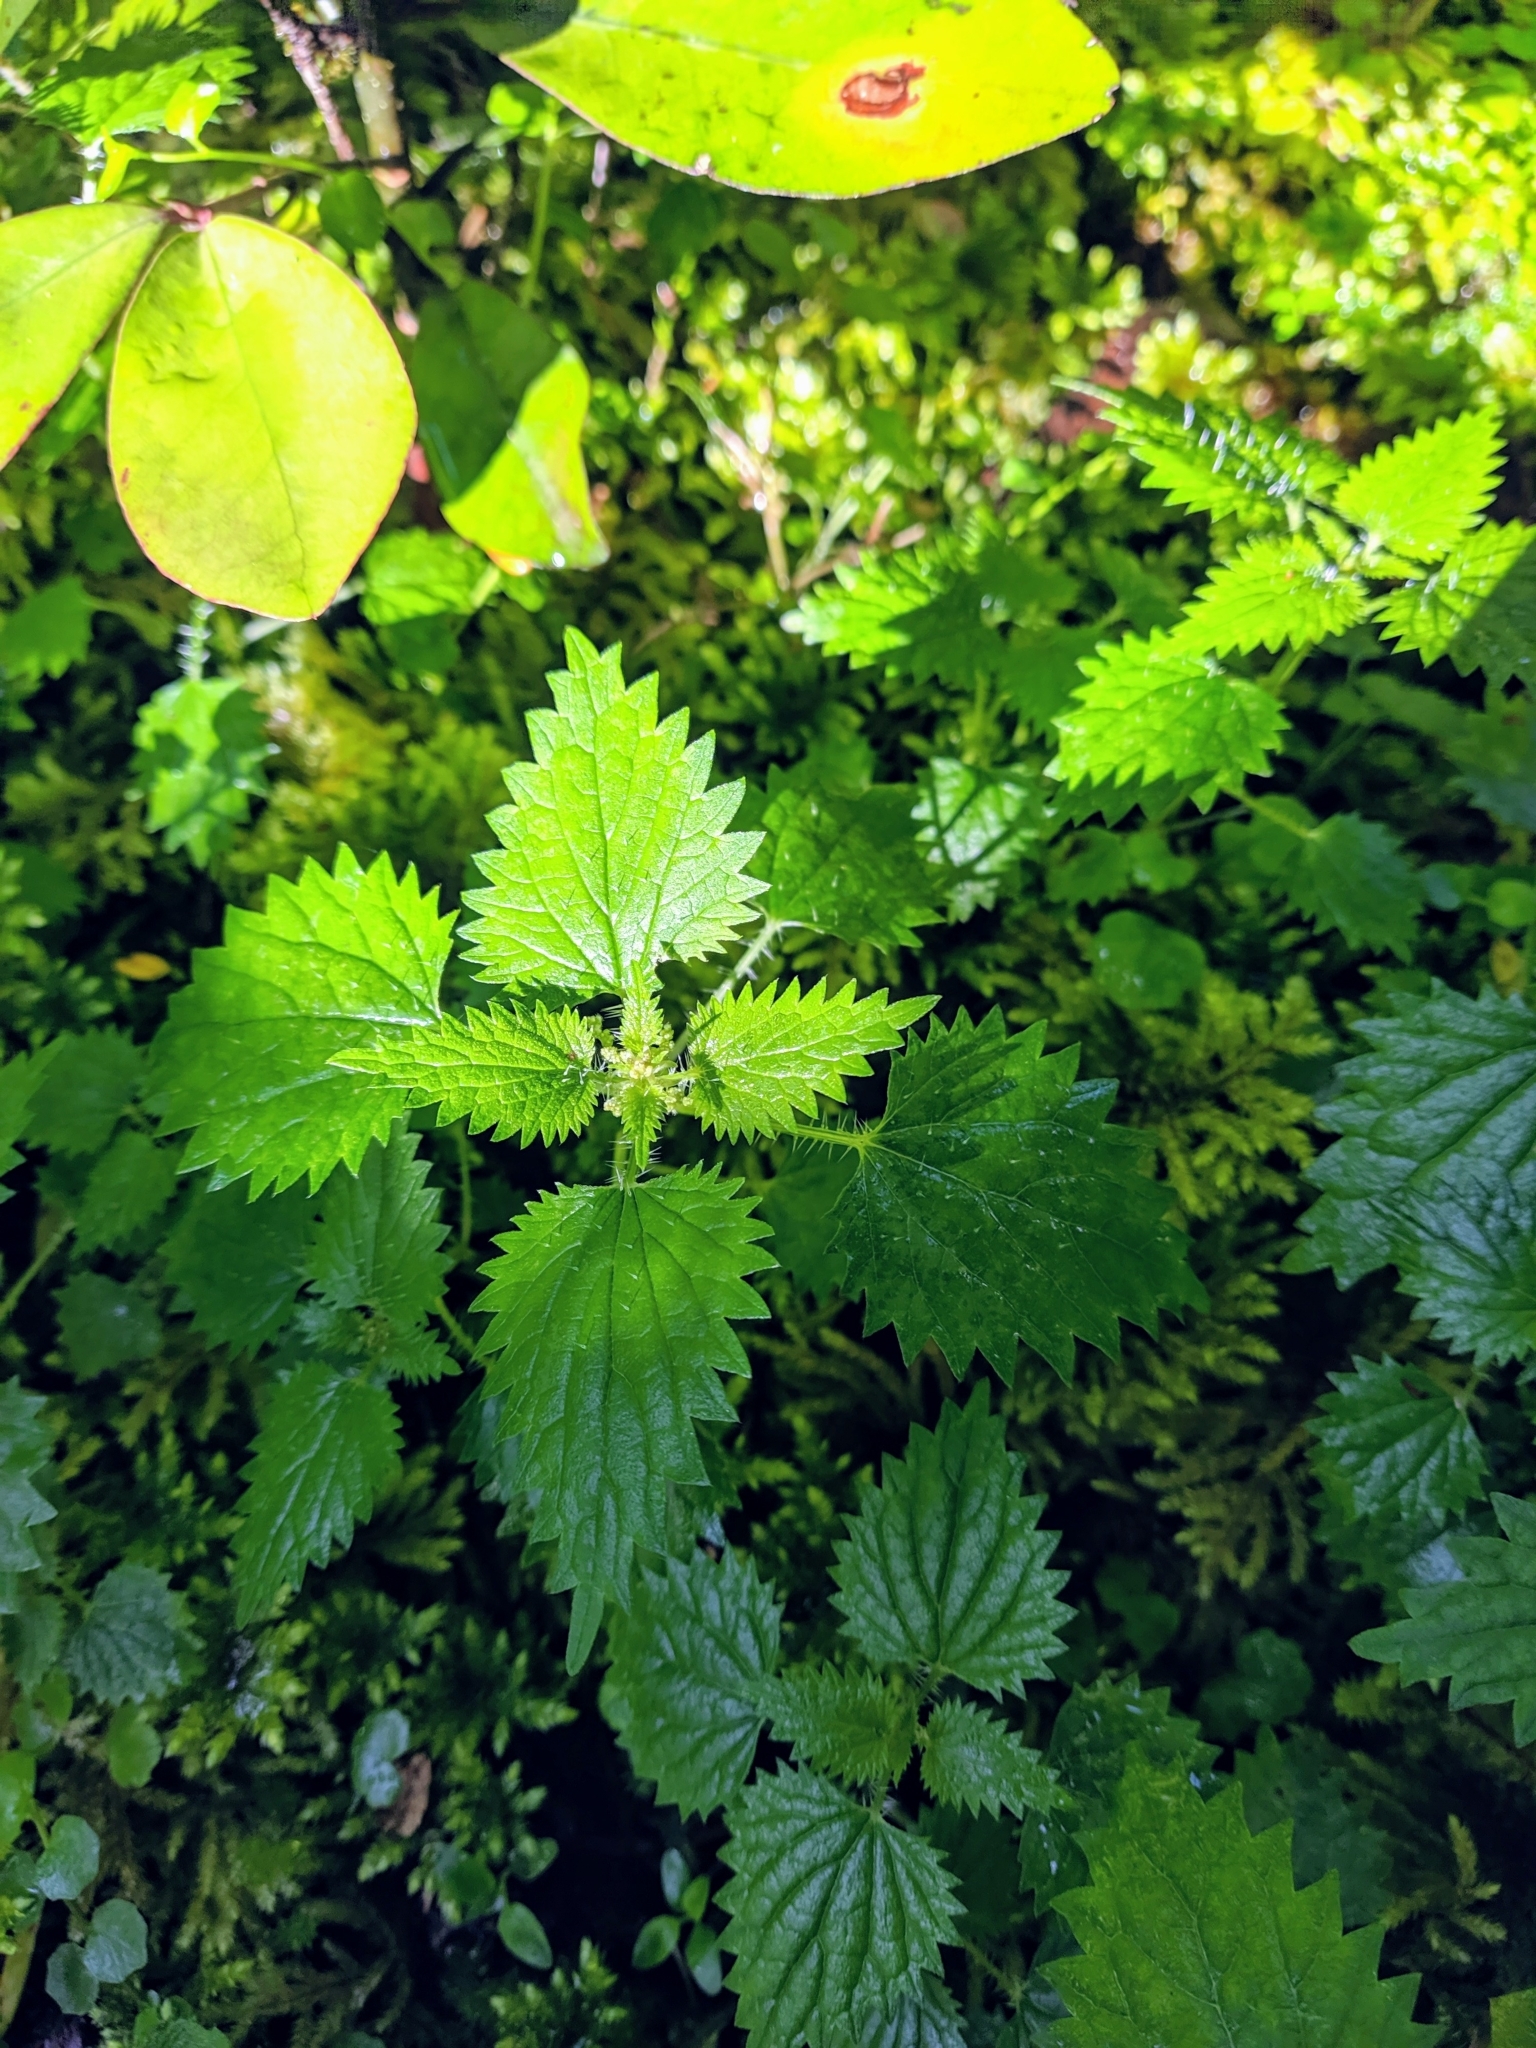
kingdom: Plantae
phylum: Tracheophyta
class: Magnoliopsida
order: Rosales
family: Urticaceae
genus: Urtica
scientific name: Urtica sykesii
